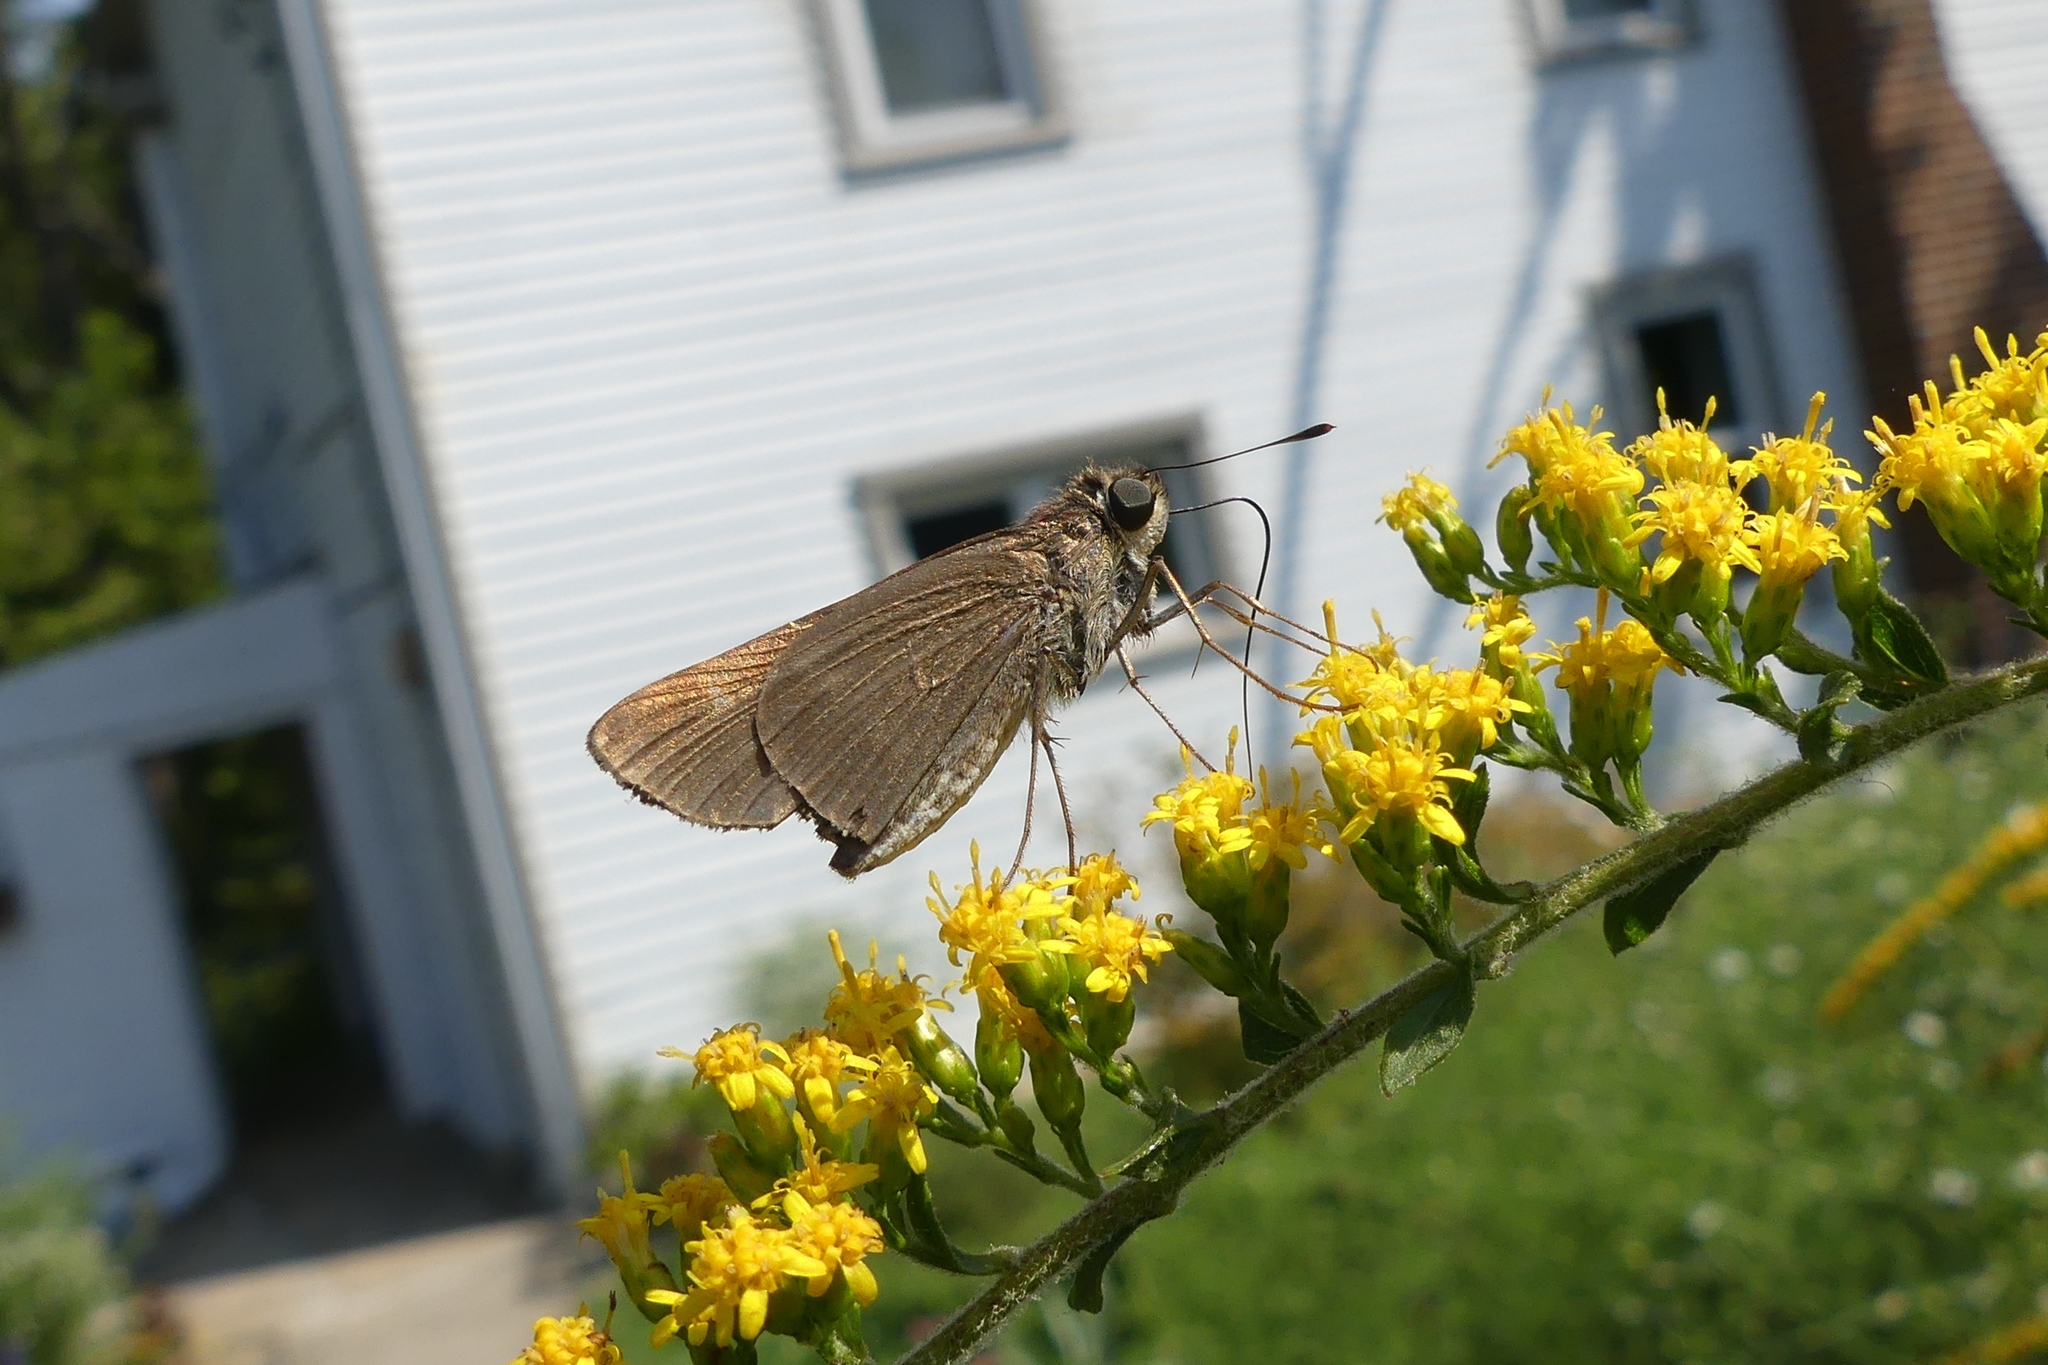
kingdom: Animalia
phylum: Arthropoda
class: Insecta
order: Lepidoptera
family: Hesperiidae
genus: Panoquina
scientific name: Panoquina ocola
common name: Ocola skipper
